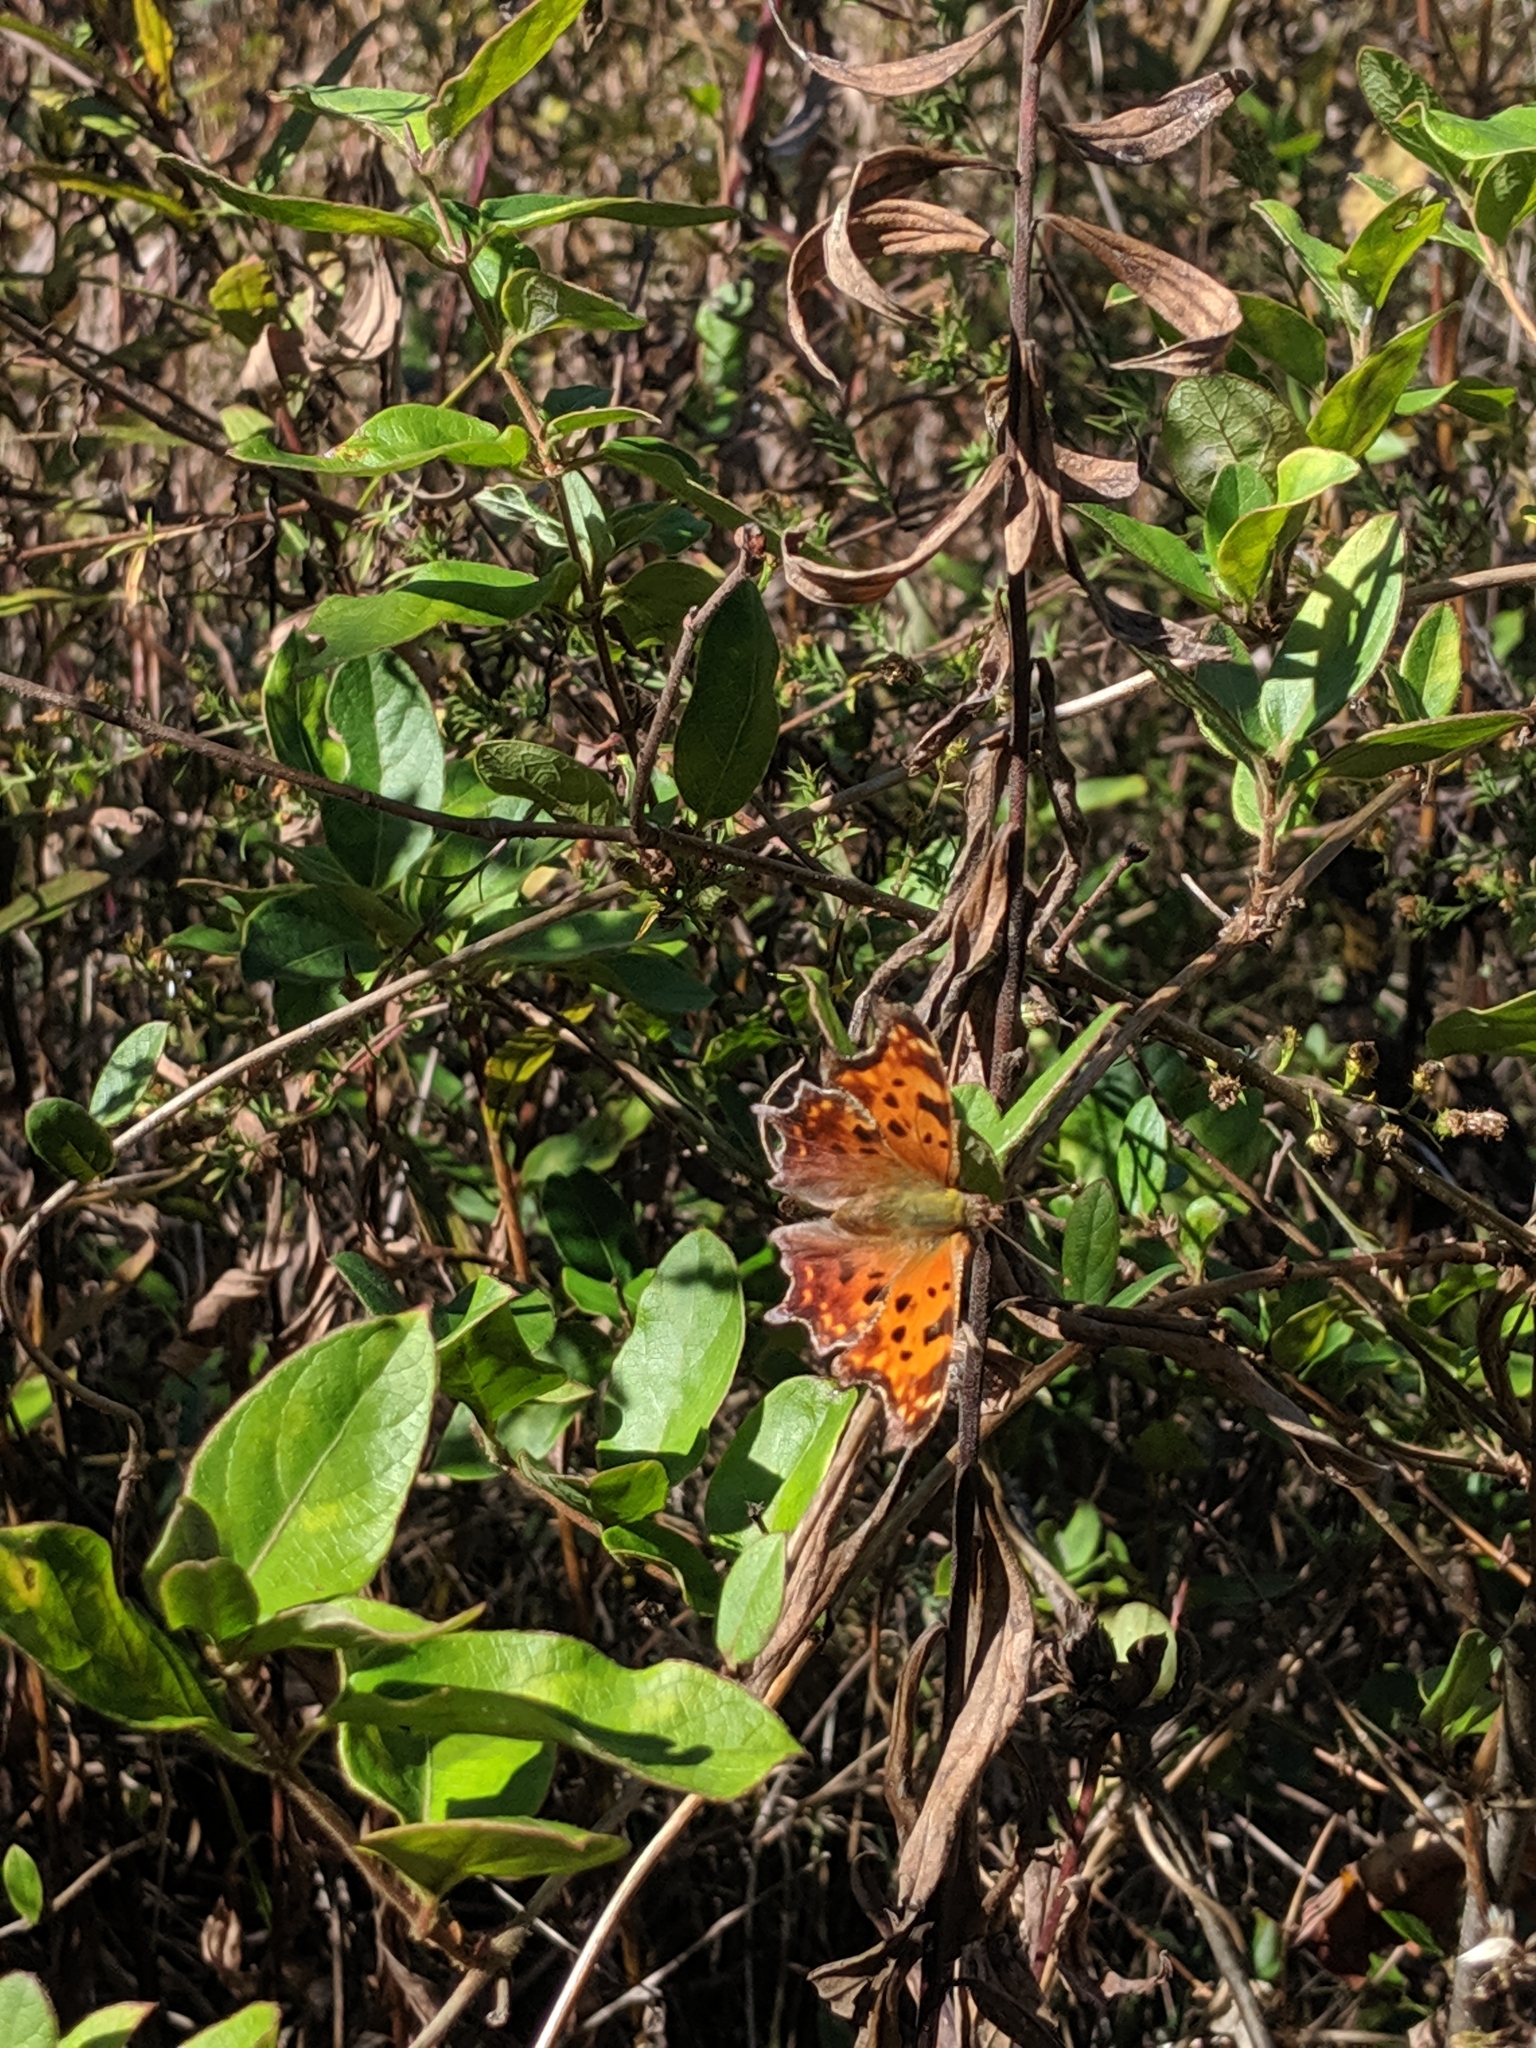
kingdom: Animalia
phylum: Arthropoda
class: Insecta
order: Lepidoptera
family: Nymphalidae
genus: Polygonia
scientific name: Polygonia comma
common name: Eastern comma
